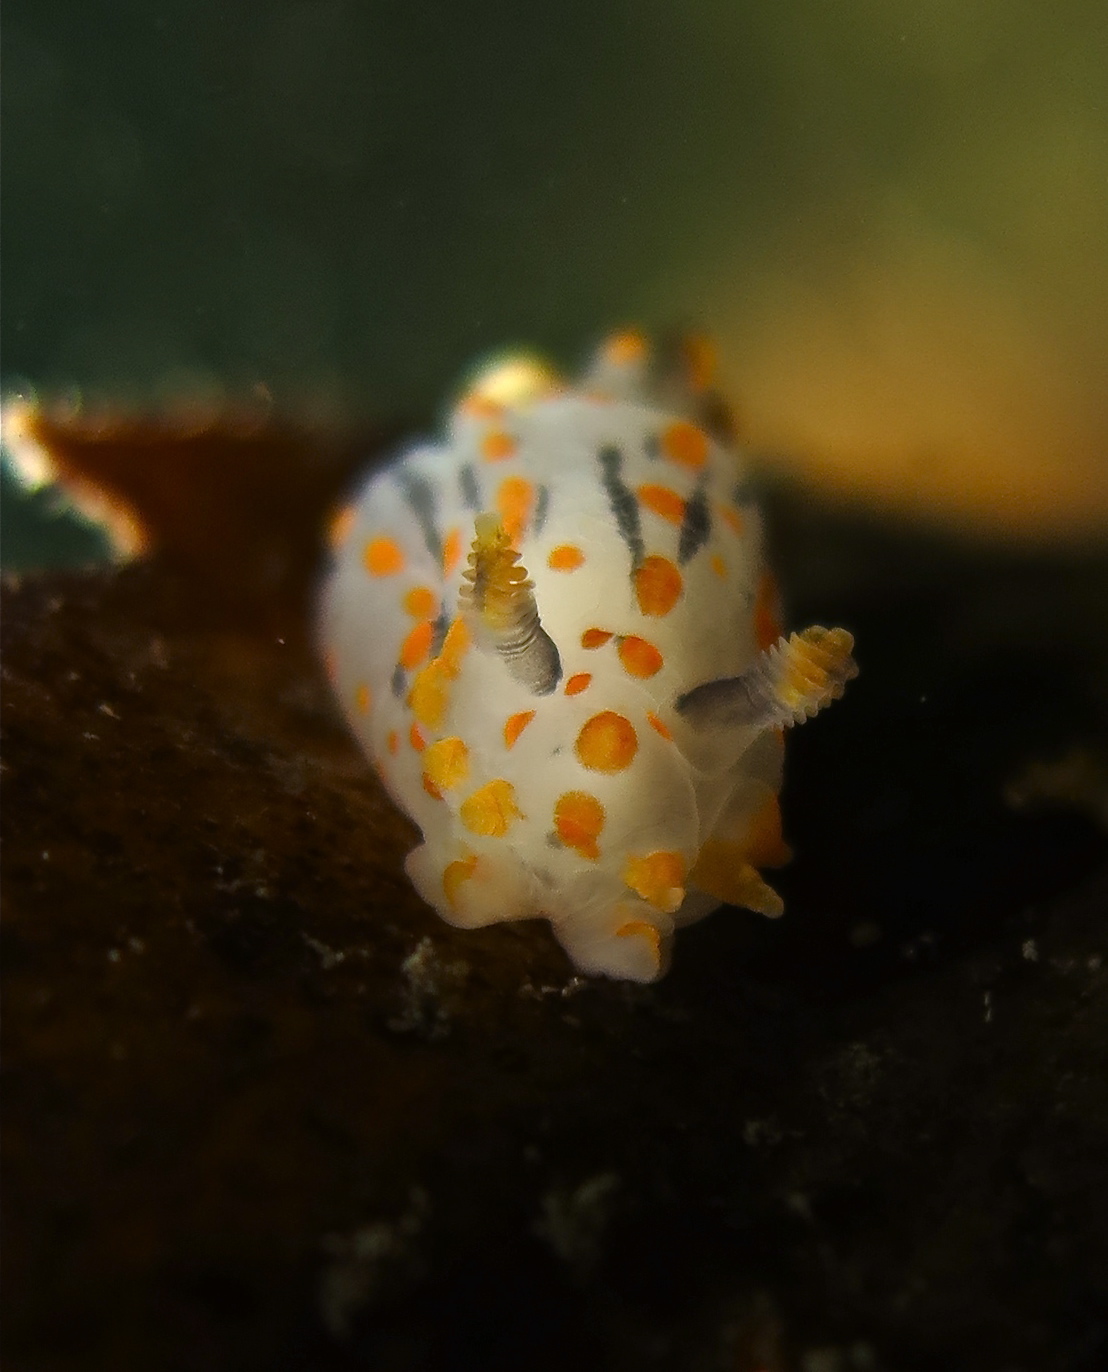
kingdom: Animalia
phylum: Mollusca
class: Gastropoda
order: Nudibranchia
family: Polyceridae
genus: Polycera
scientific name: Polycera quadrilineata
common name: Four-striped polycera
